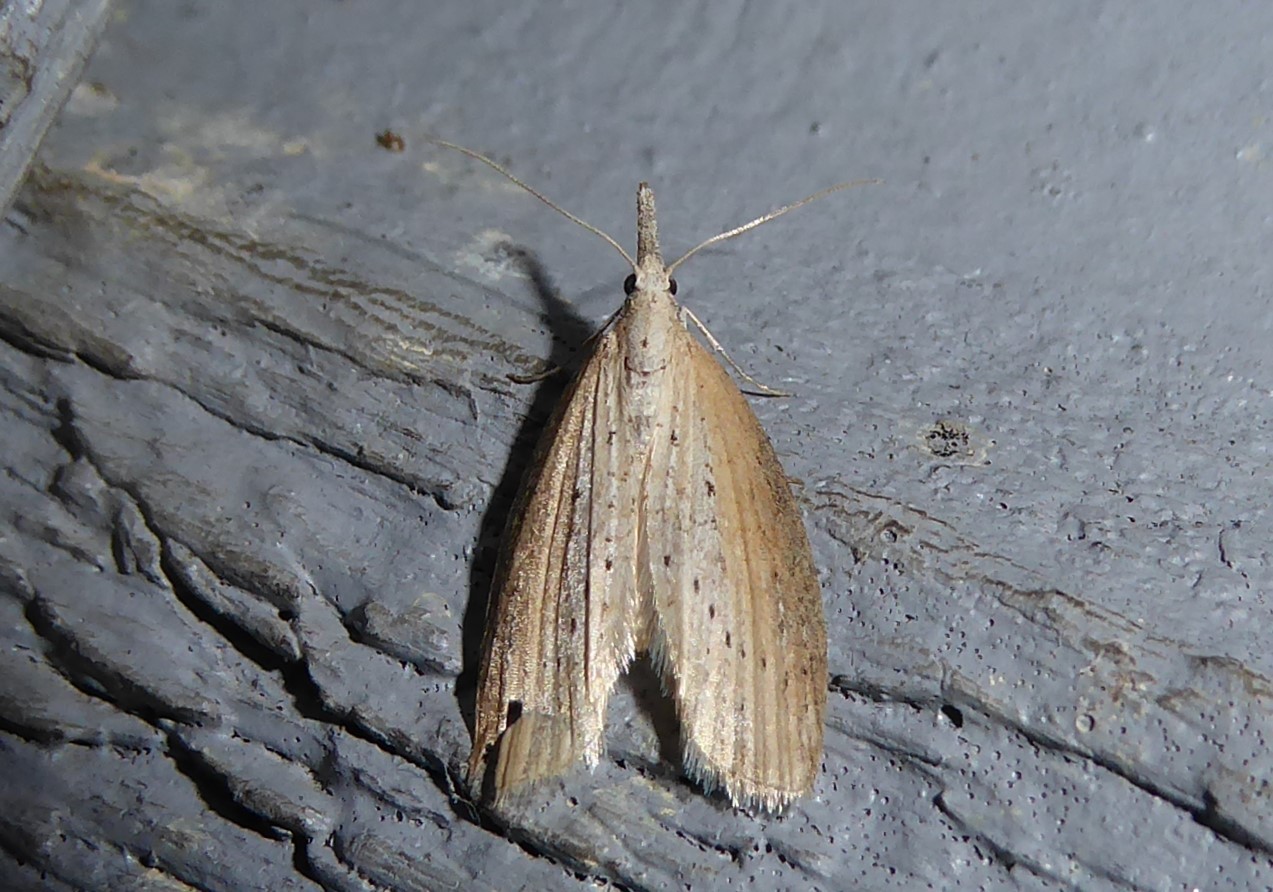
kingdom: Animalia
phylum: Arthropoda
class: Insecta
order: Lepidoptera
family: Geometridae
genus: Microdes
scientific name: Microdes epicryptis
